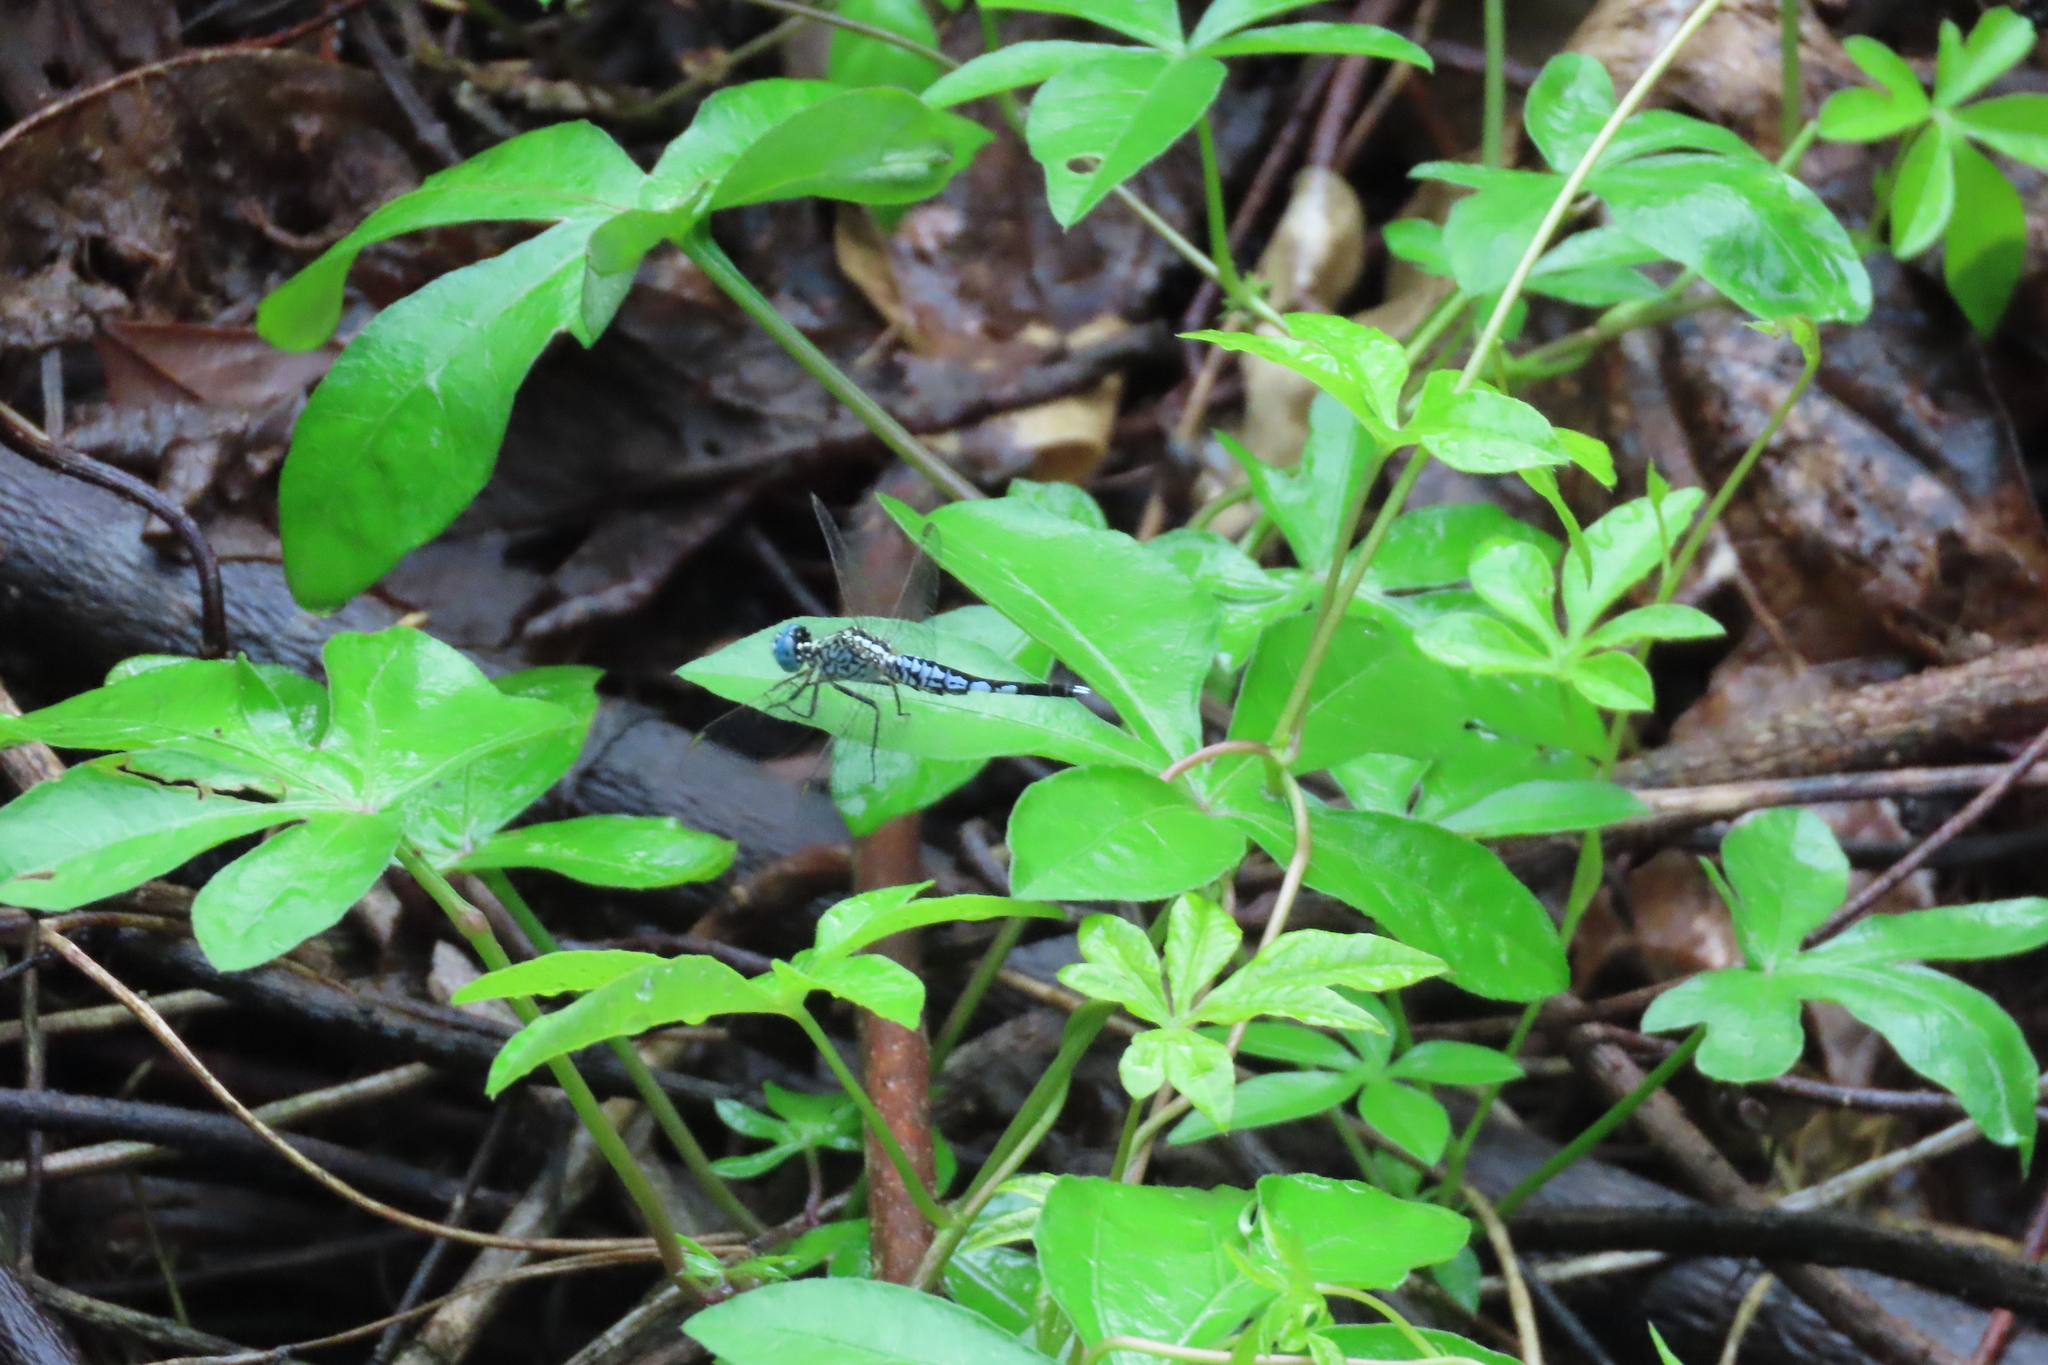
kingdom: Animalia
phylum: Arthropoda
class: Insecta
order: Odonata
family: Libellulidae
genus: Acisoma
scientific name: Acisoma panorpoides
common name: Asian pintail
